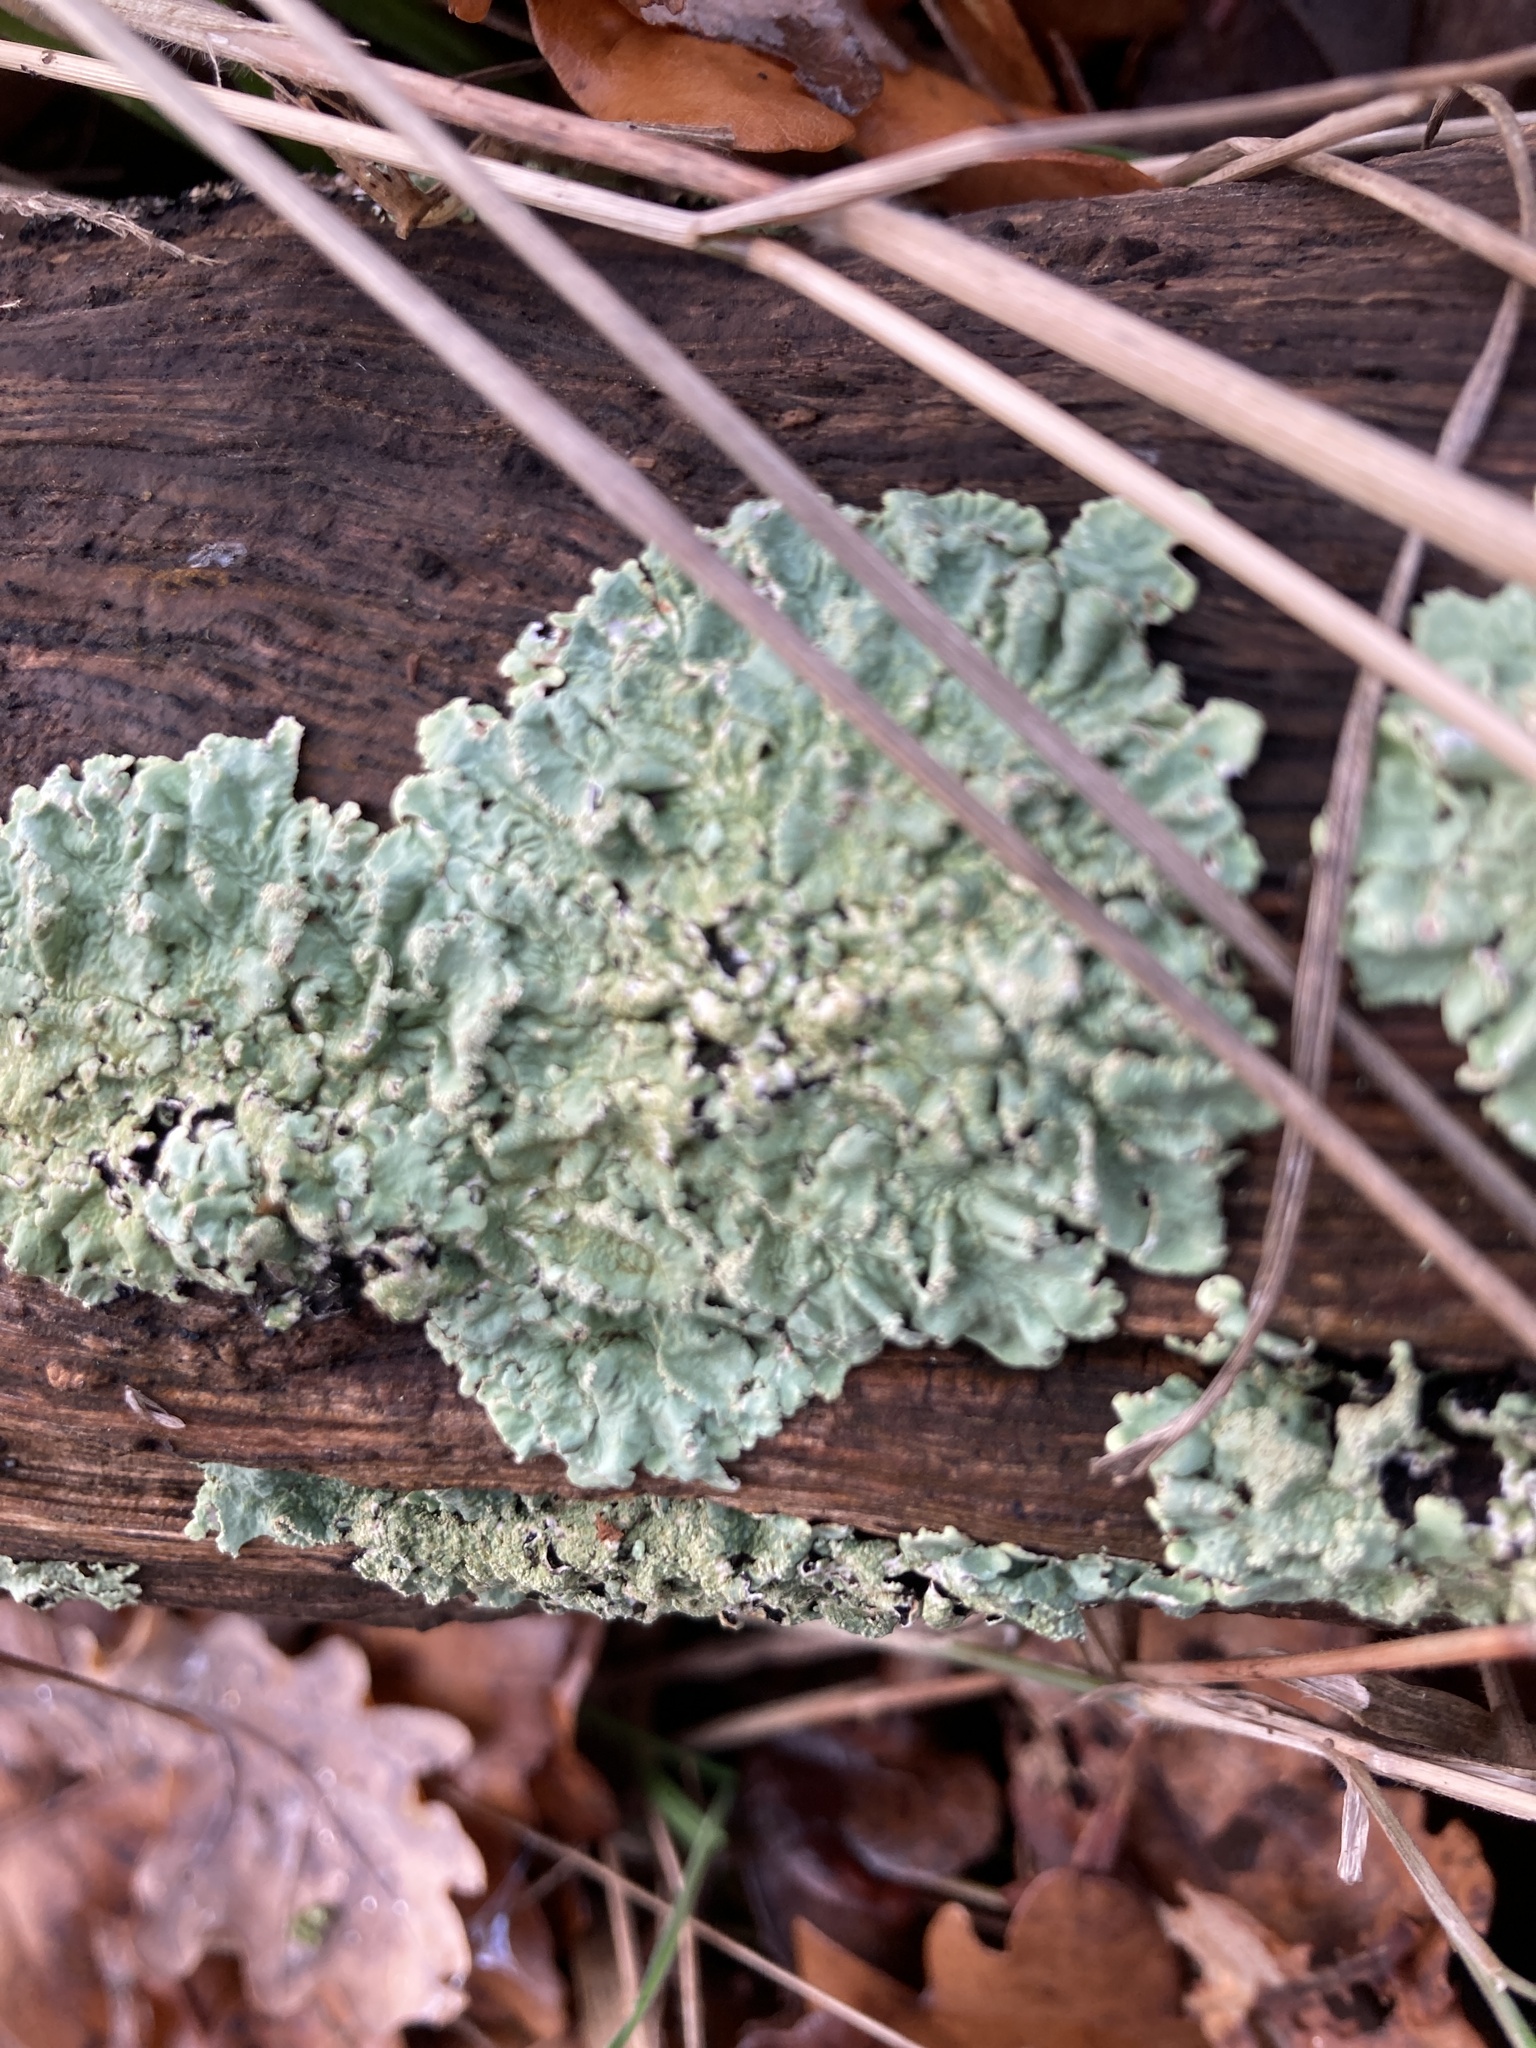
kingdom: Fungi
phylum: Ascomycota
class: Lecanoromycetes
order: Lecanorales
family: Parmeliaceae
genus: Flavoparmelia
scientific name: Flavoparmelia caperata
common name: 40-mile per hour lichen
